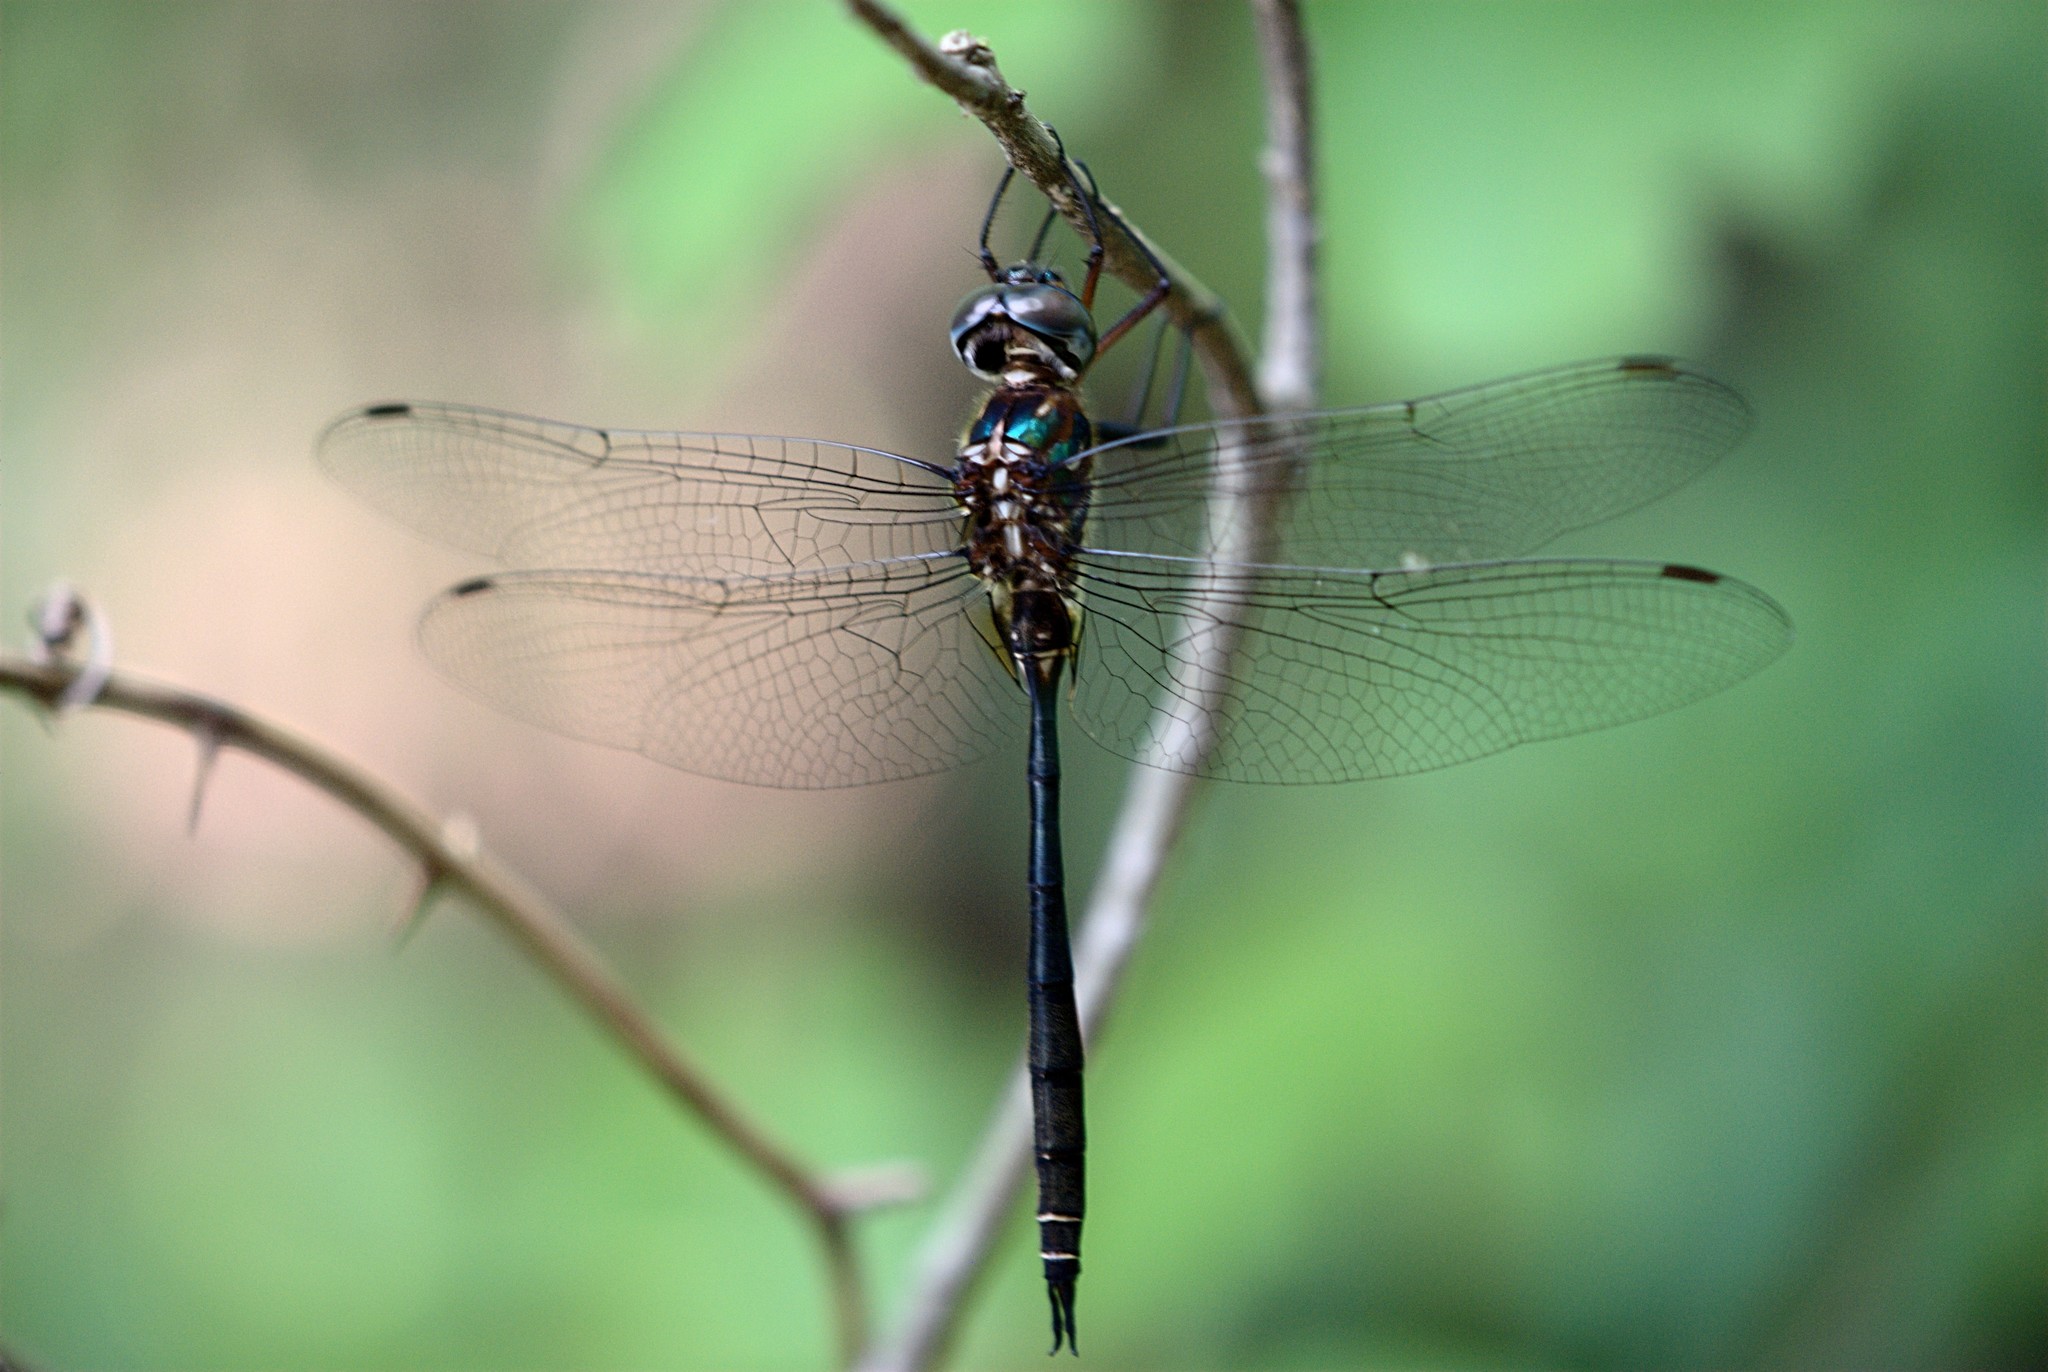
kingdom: Animalia
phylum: Arthropoda
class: Insecta
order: Odonata
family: Corduliidae
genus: Somatochlora
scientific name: Somatochlora filosa
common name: Fine-lined emerald
